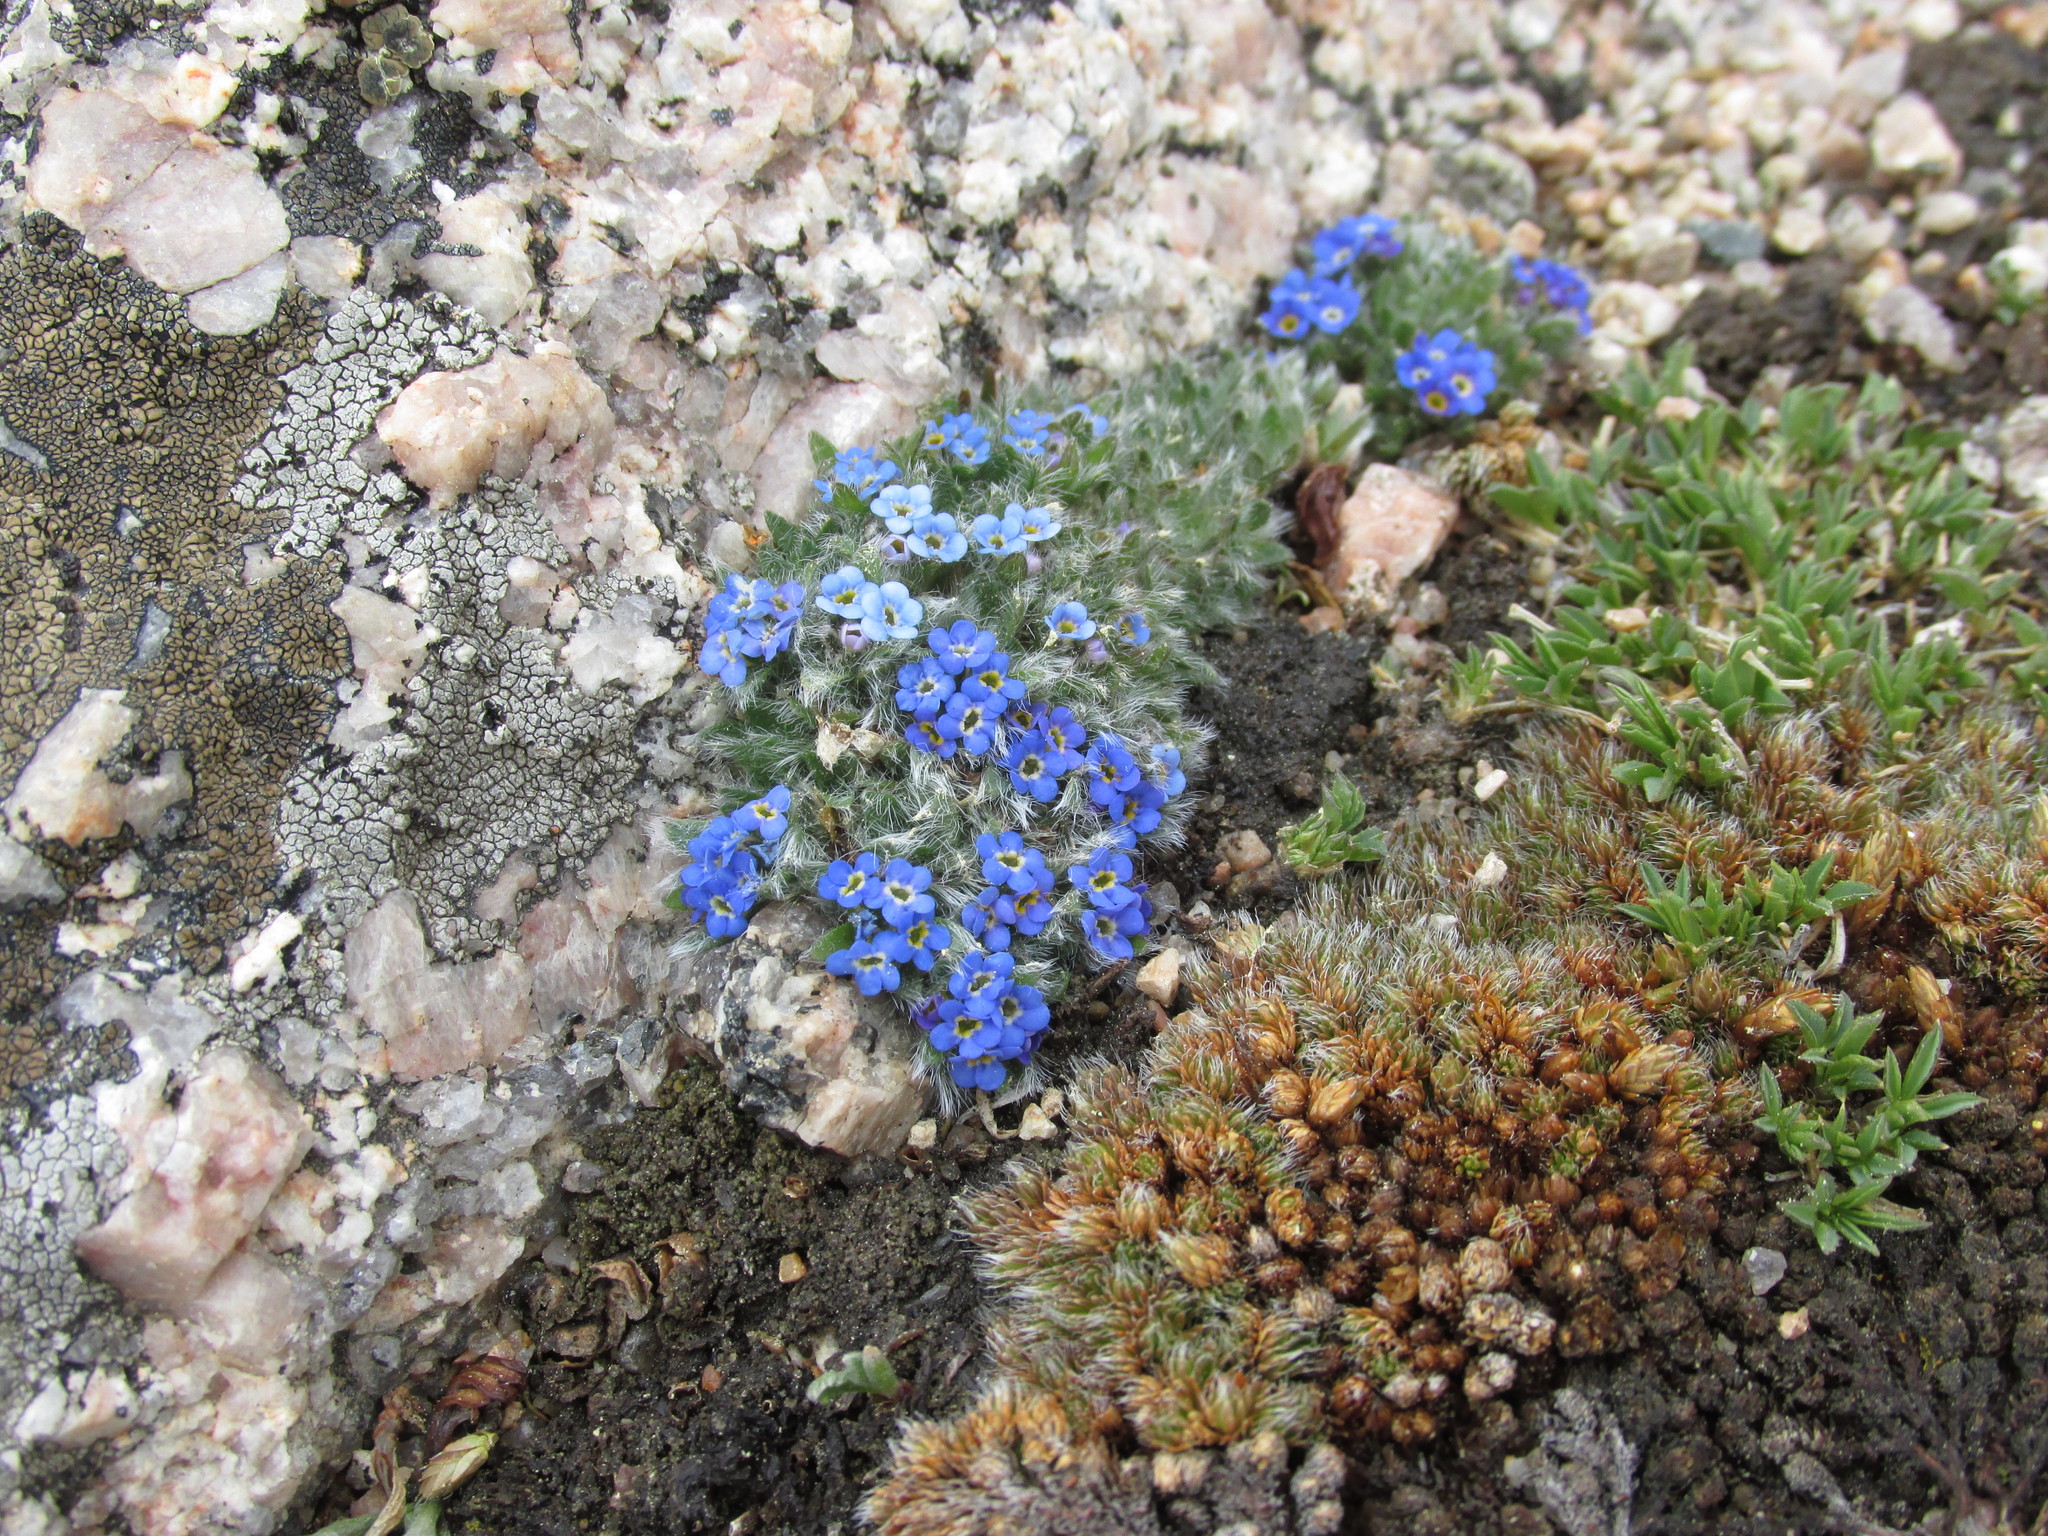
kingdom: Plantae
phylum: Tracheophyta
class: Magnoliopsida
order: Boraginales
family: Boraginaceae
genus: Eritrichium
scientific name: Eritrichium argenteum
